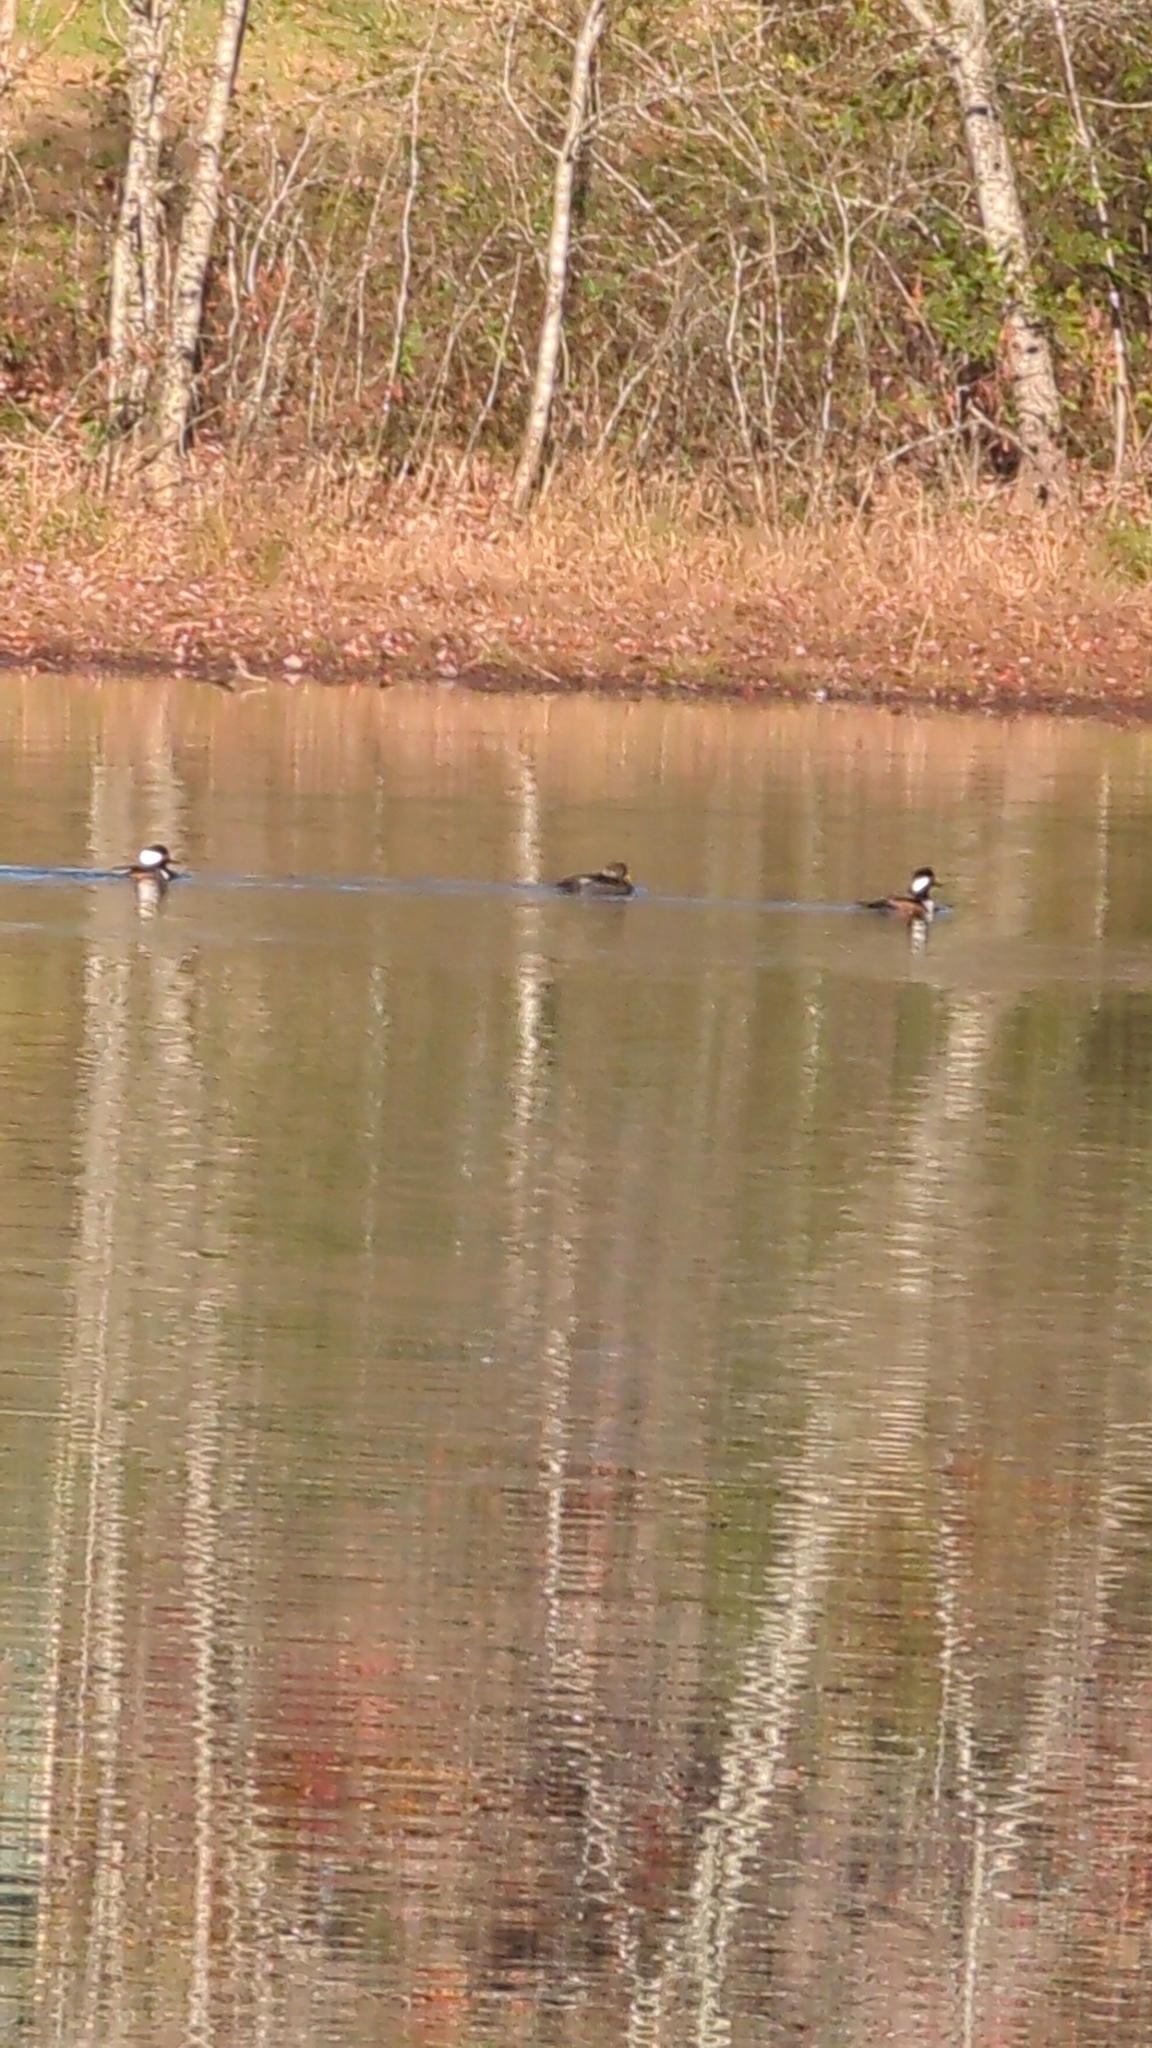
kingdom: Animalia
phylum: Chordata
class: Aves
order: Anseriformes
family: Anatidae
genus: Lophodytes
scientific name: Lophodytes cucullatus
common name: Hooded merganser
